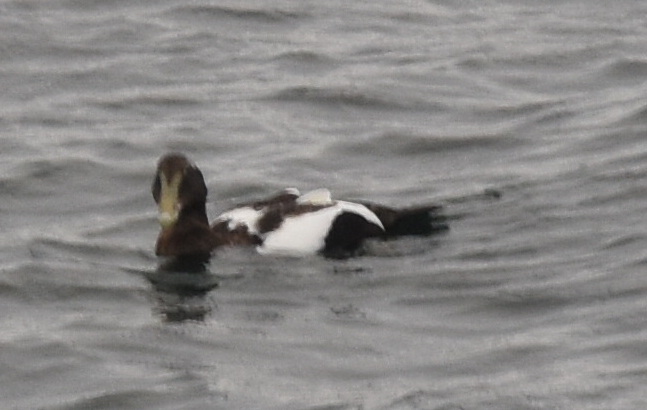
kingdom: Animalia
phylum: Chordata
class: Aves
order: Anseriformes
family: Anatidae
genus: Somateria
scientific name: Somateria mollissima
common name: Common eider
